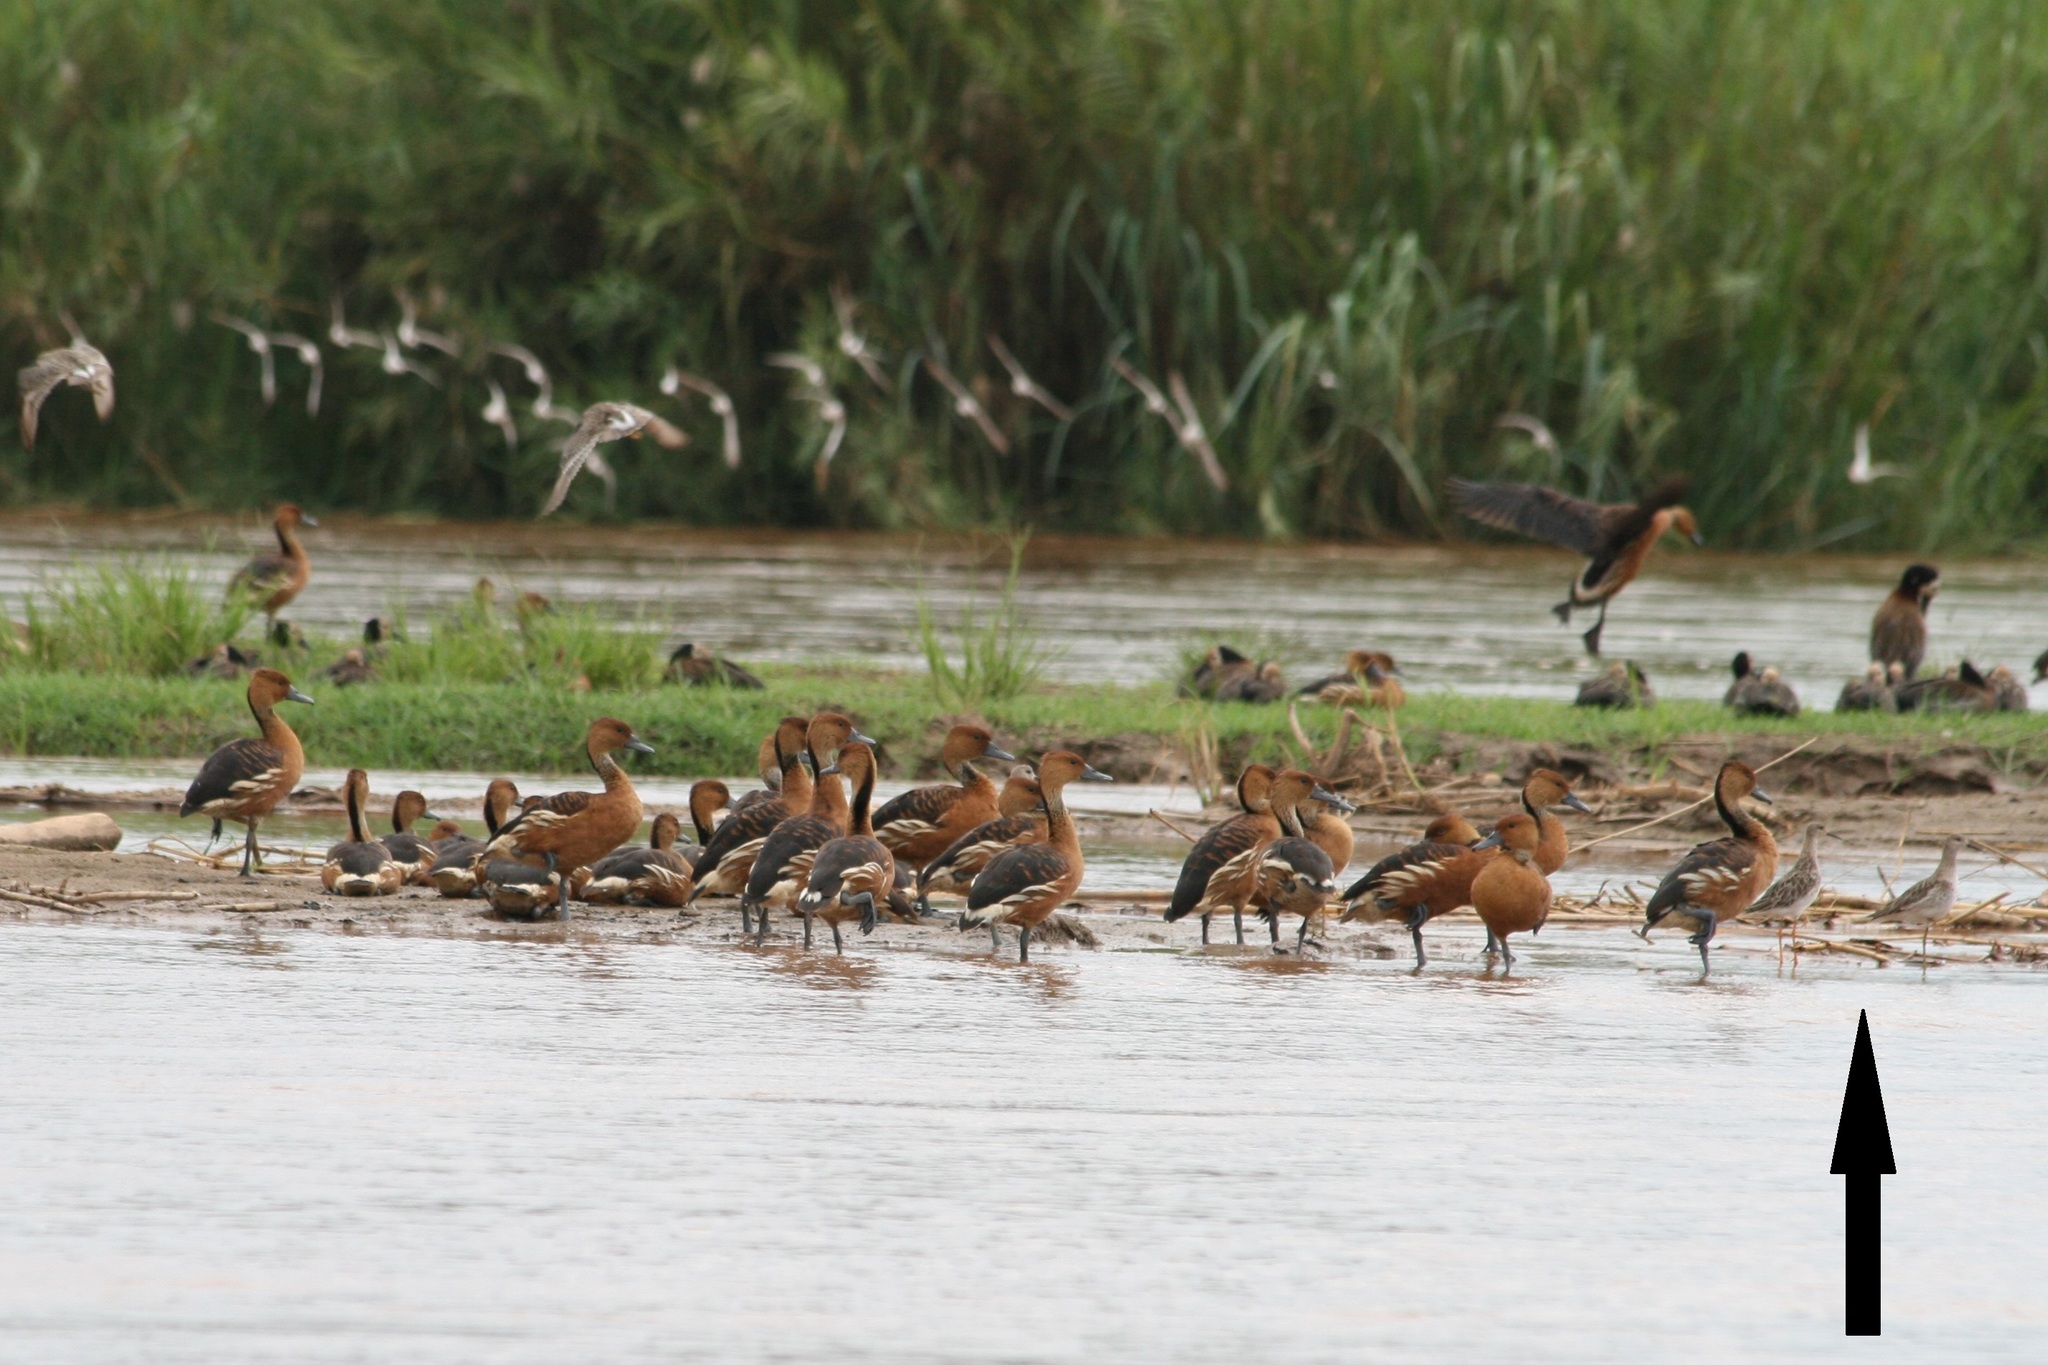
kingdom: Animalia
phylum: Chordata
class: Aves
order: Charadriiformes
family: Scolopacidae
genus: Calidris
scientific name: Calidris pugnax
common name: Ruff
